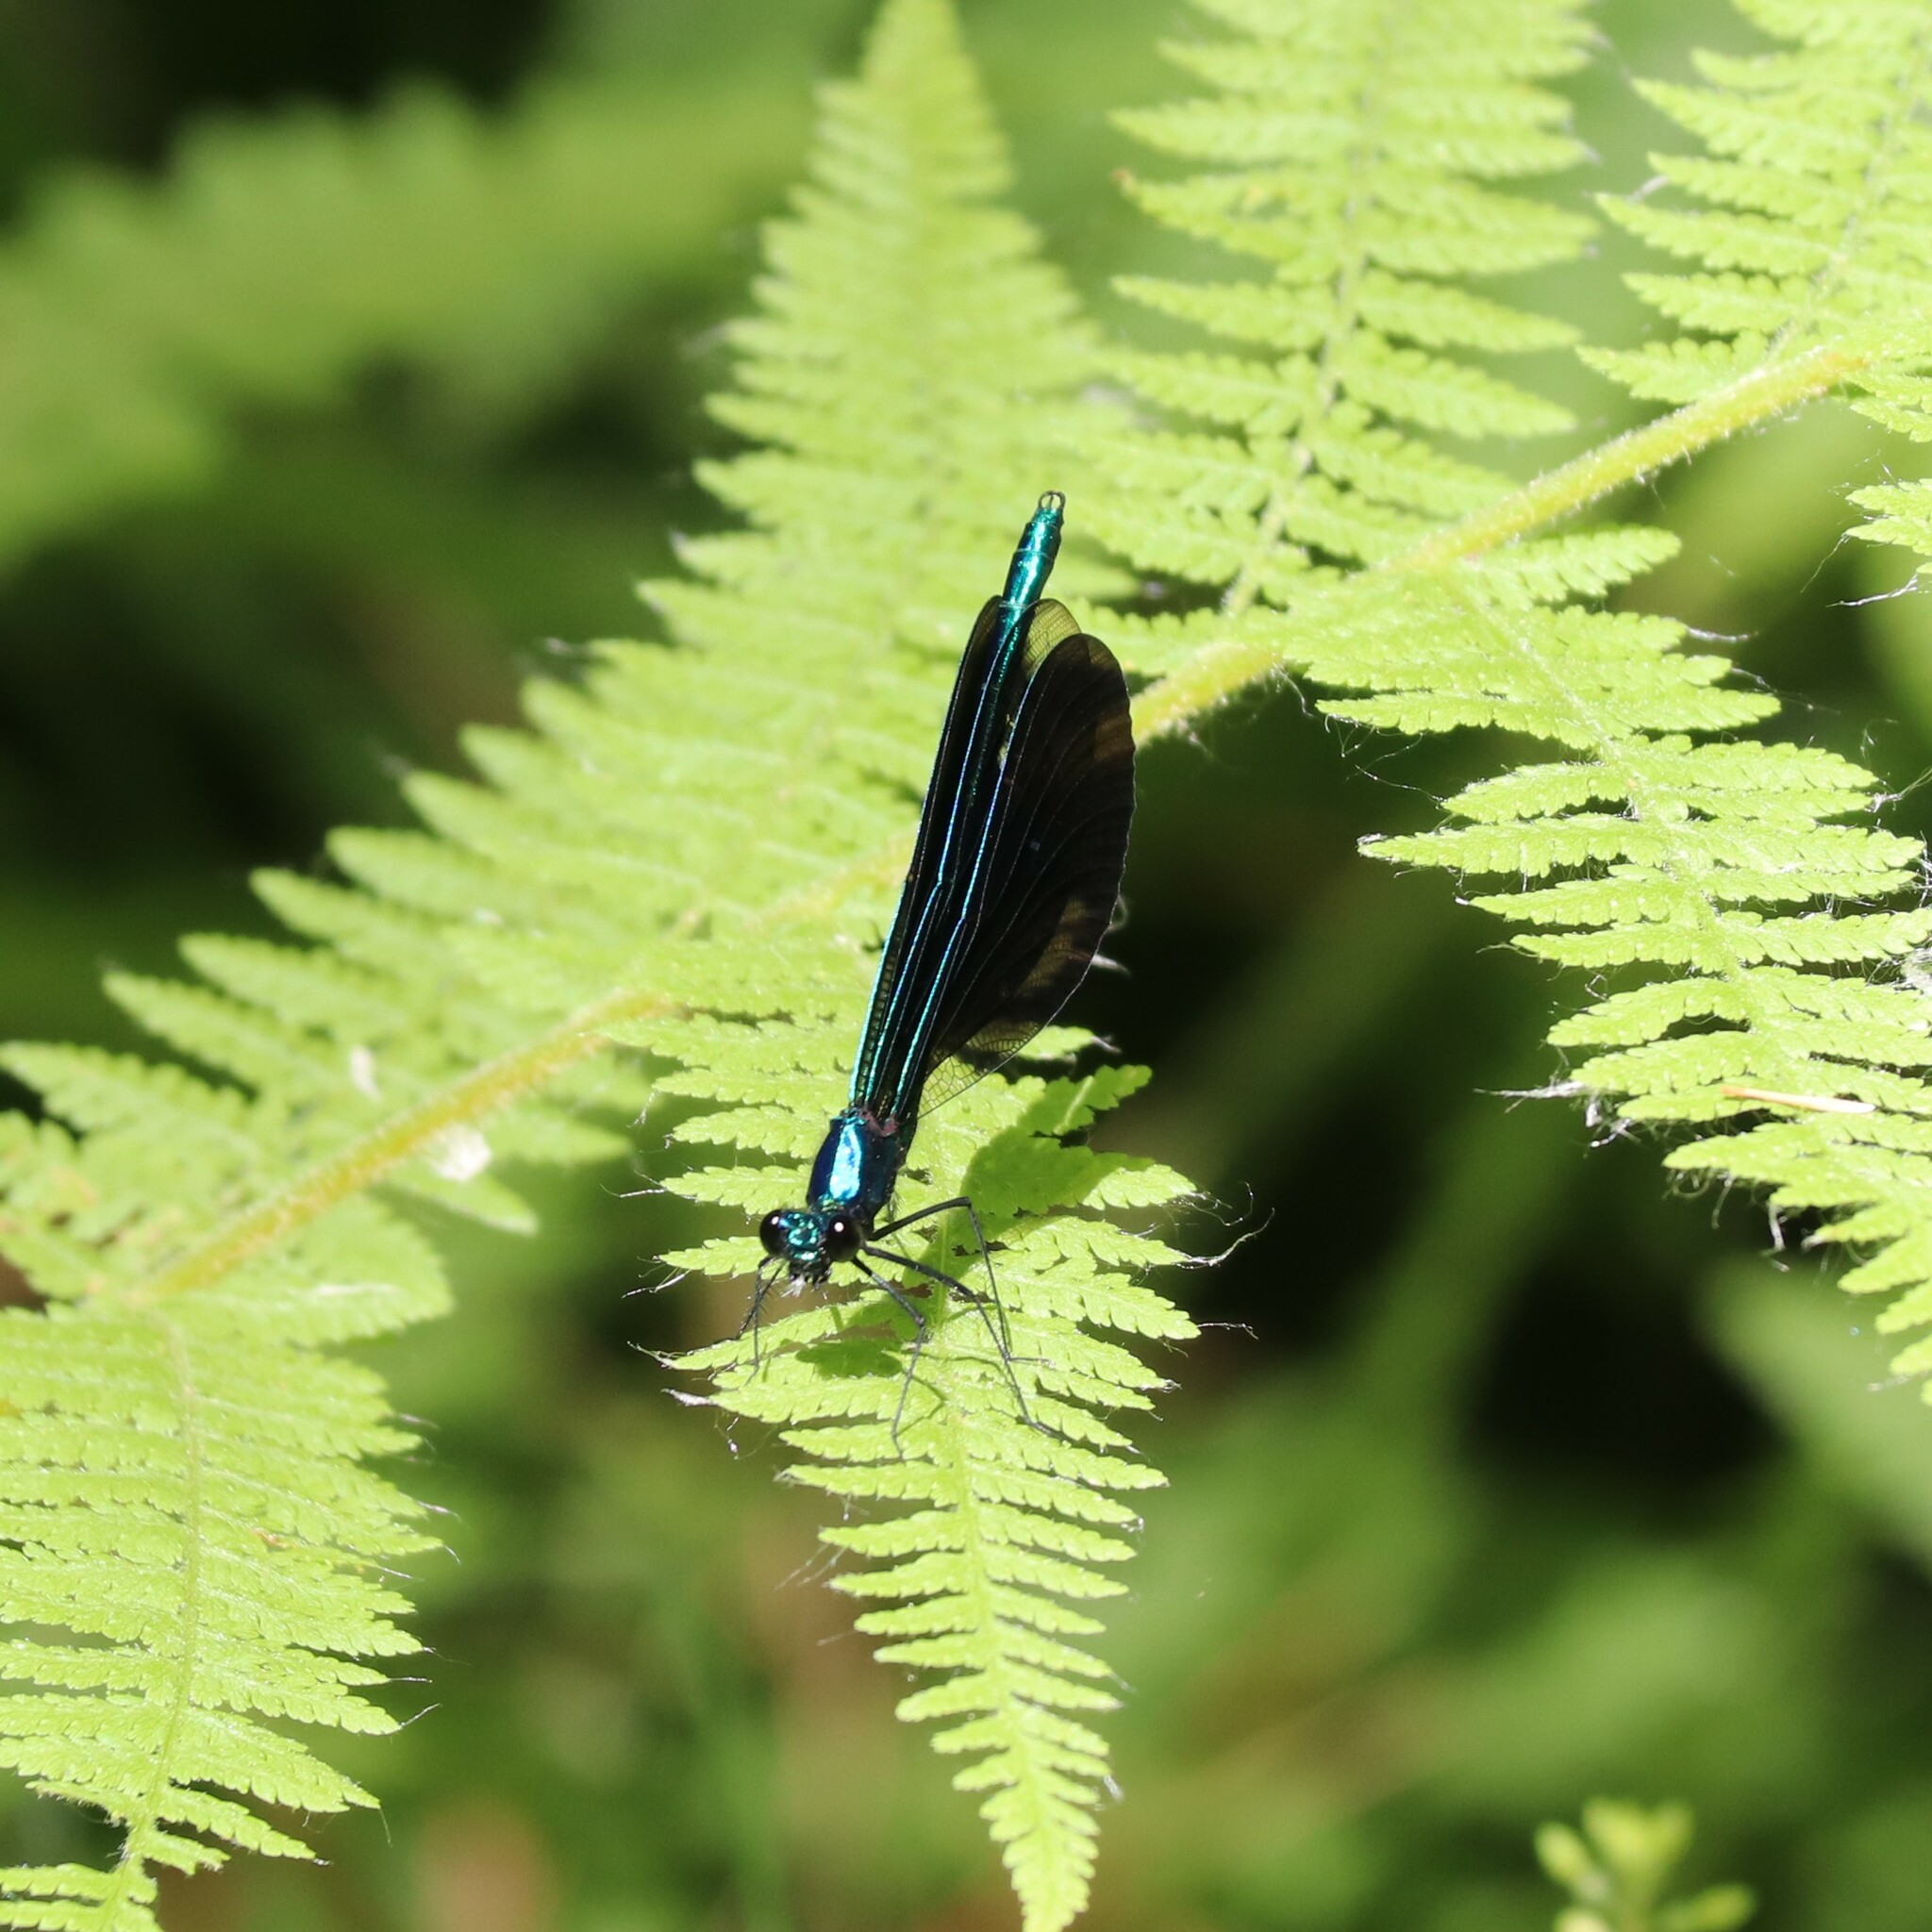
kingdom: Animalia
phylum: Arthropoda
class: Insecta
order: Odonata
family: Calopterygidae
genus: Calopteryx
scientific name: Calopteryx maculata
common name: Ebony jewelwing
